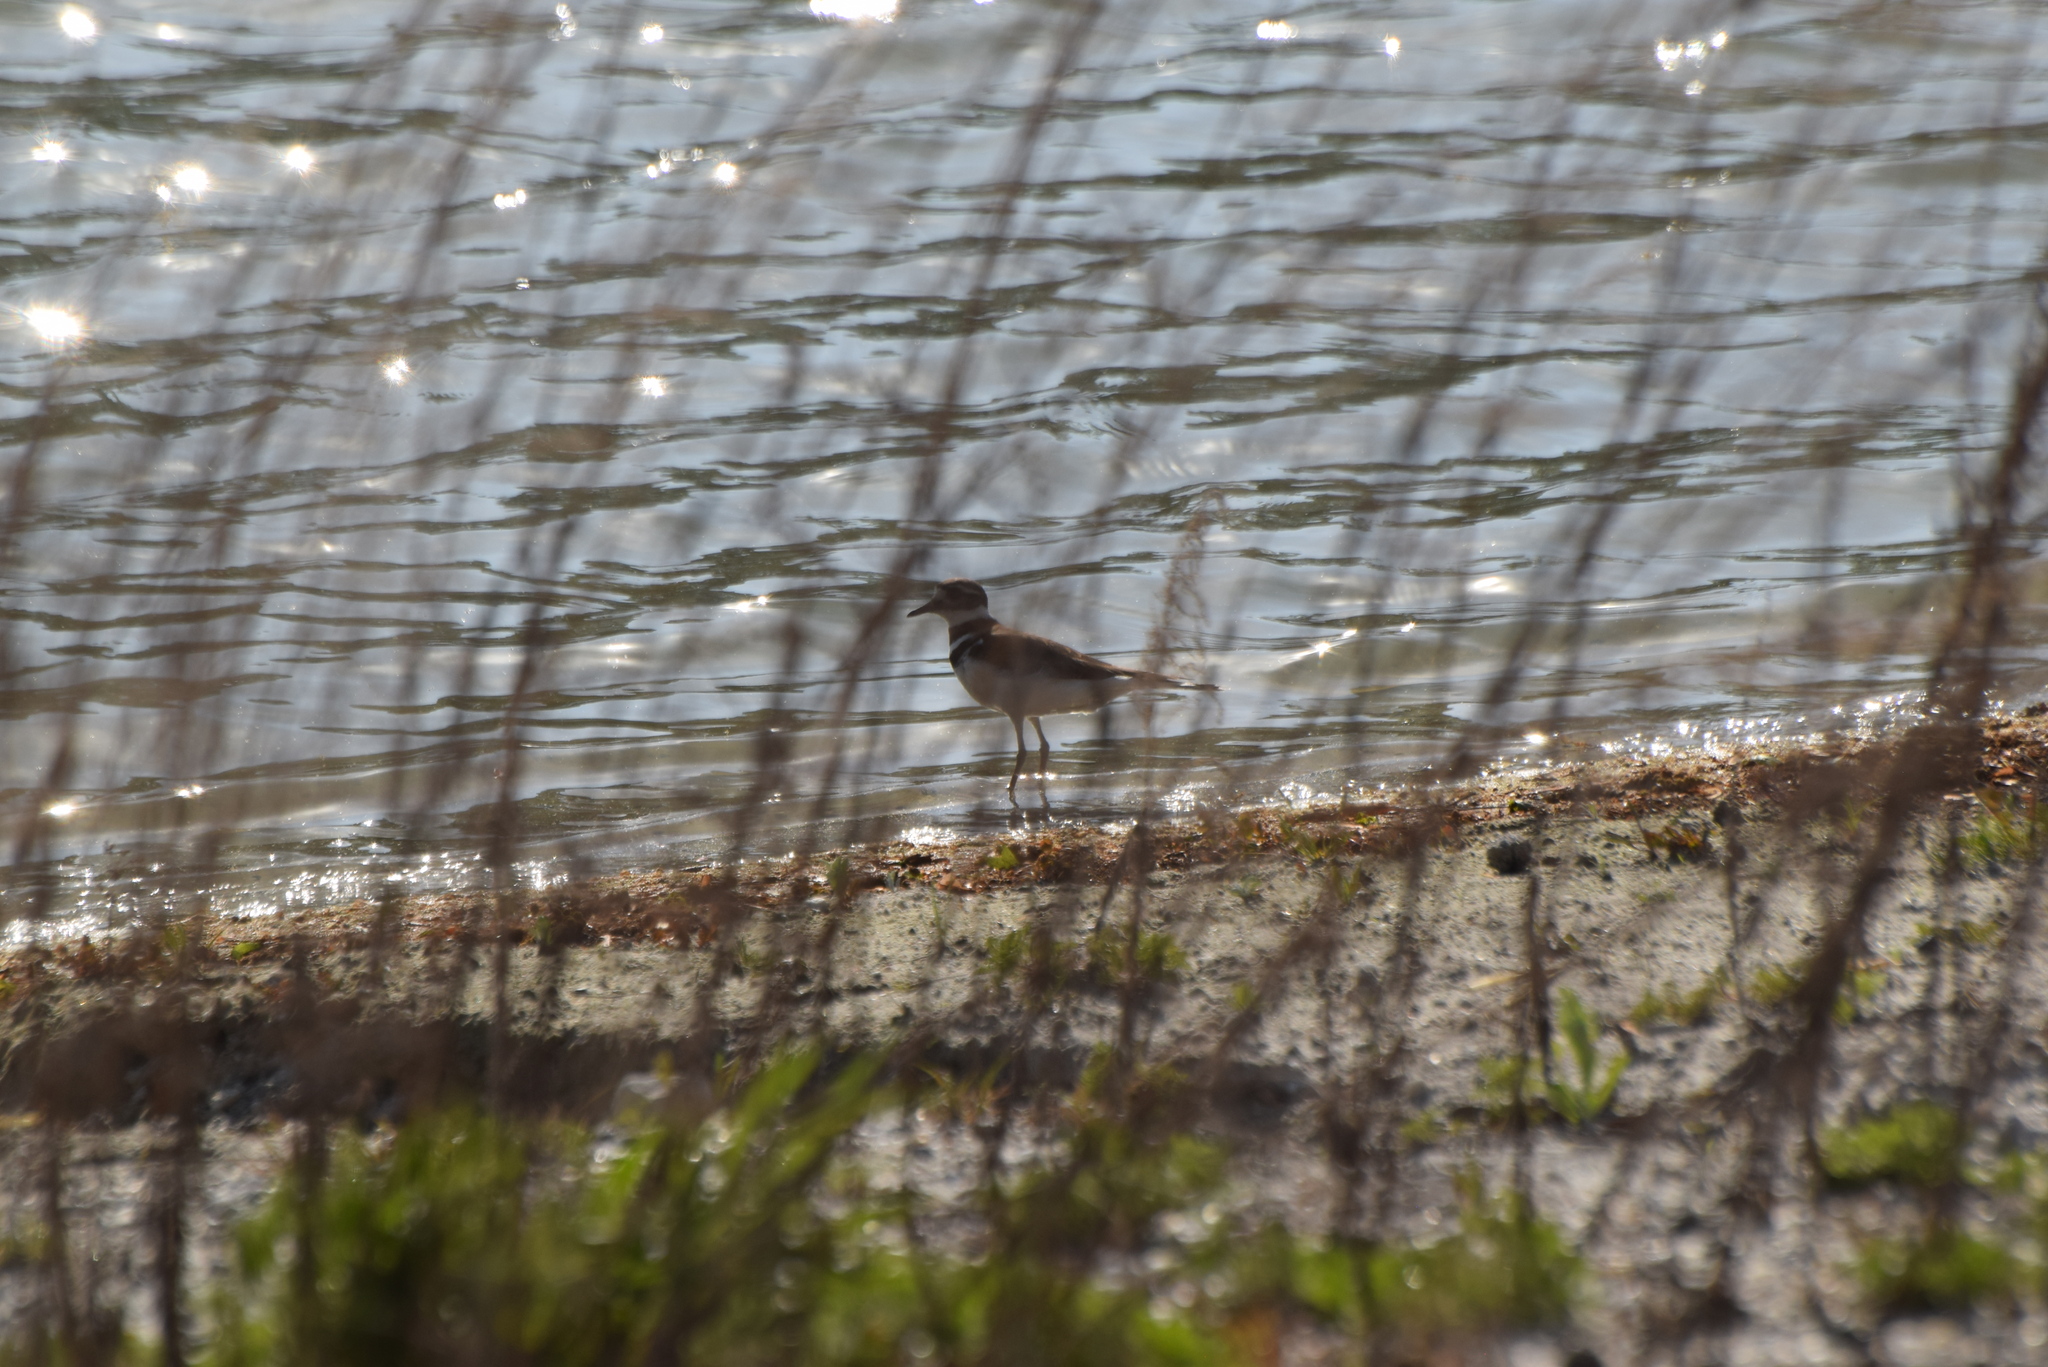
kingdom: Animalia
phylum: Chordata
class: Aves
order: Charadriiformes
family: Charadriidae
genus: Charadrius
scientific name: Charadrius vociferus
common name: Killdeer
